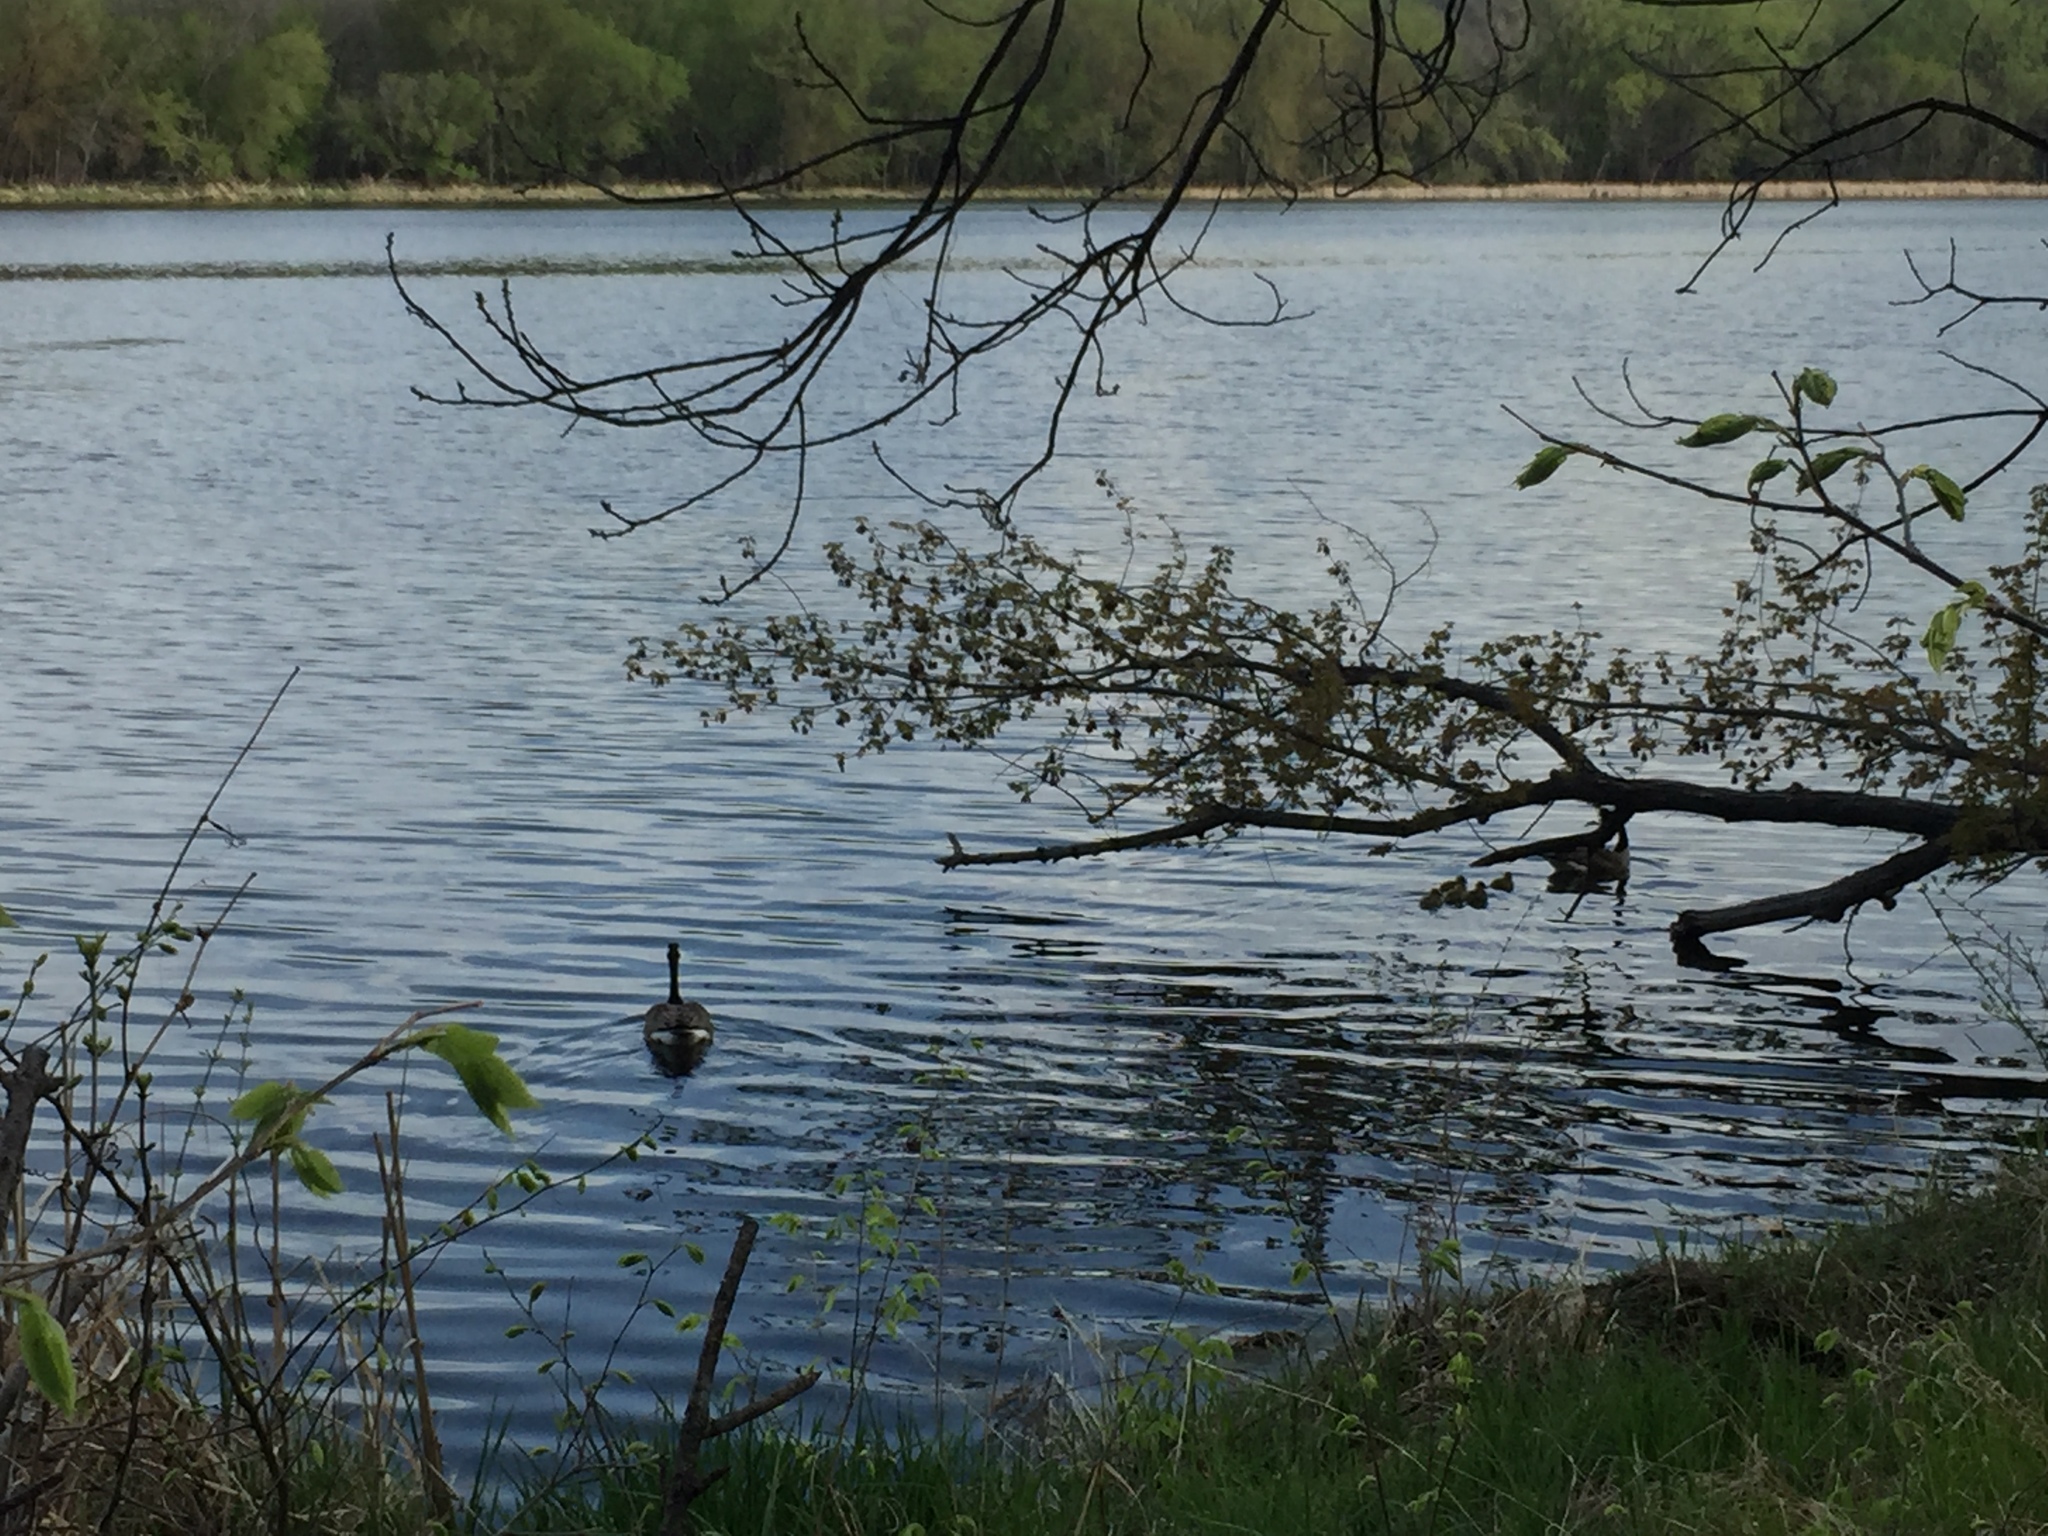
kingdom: Animalia
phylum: Chordata
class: Aves
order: Anseriformes
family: Anatidae
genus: Branta
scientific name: Branta canadensis
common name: Canada goose
